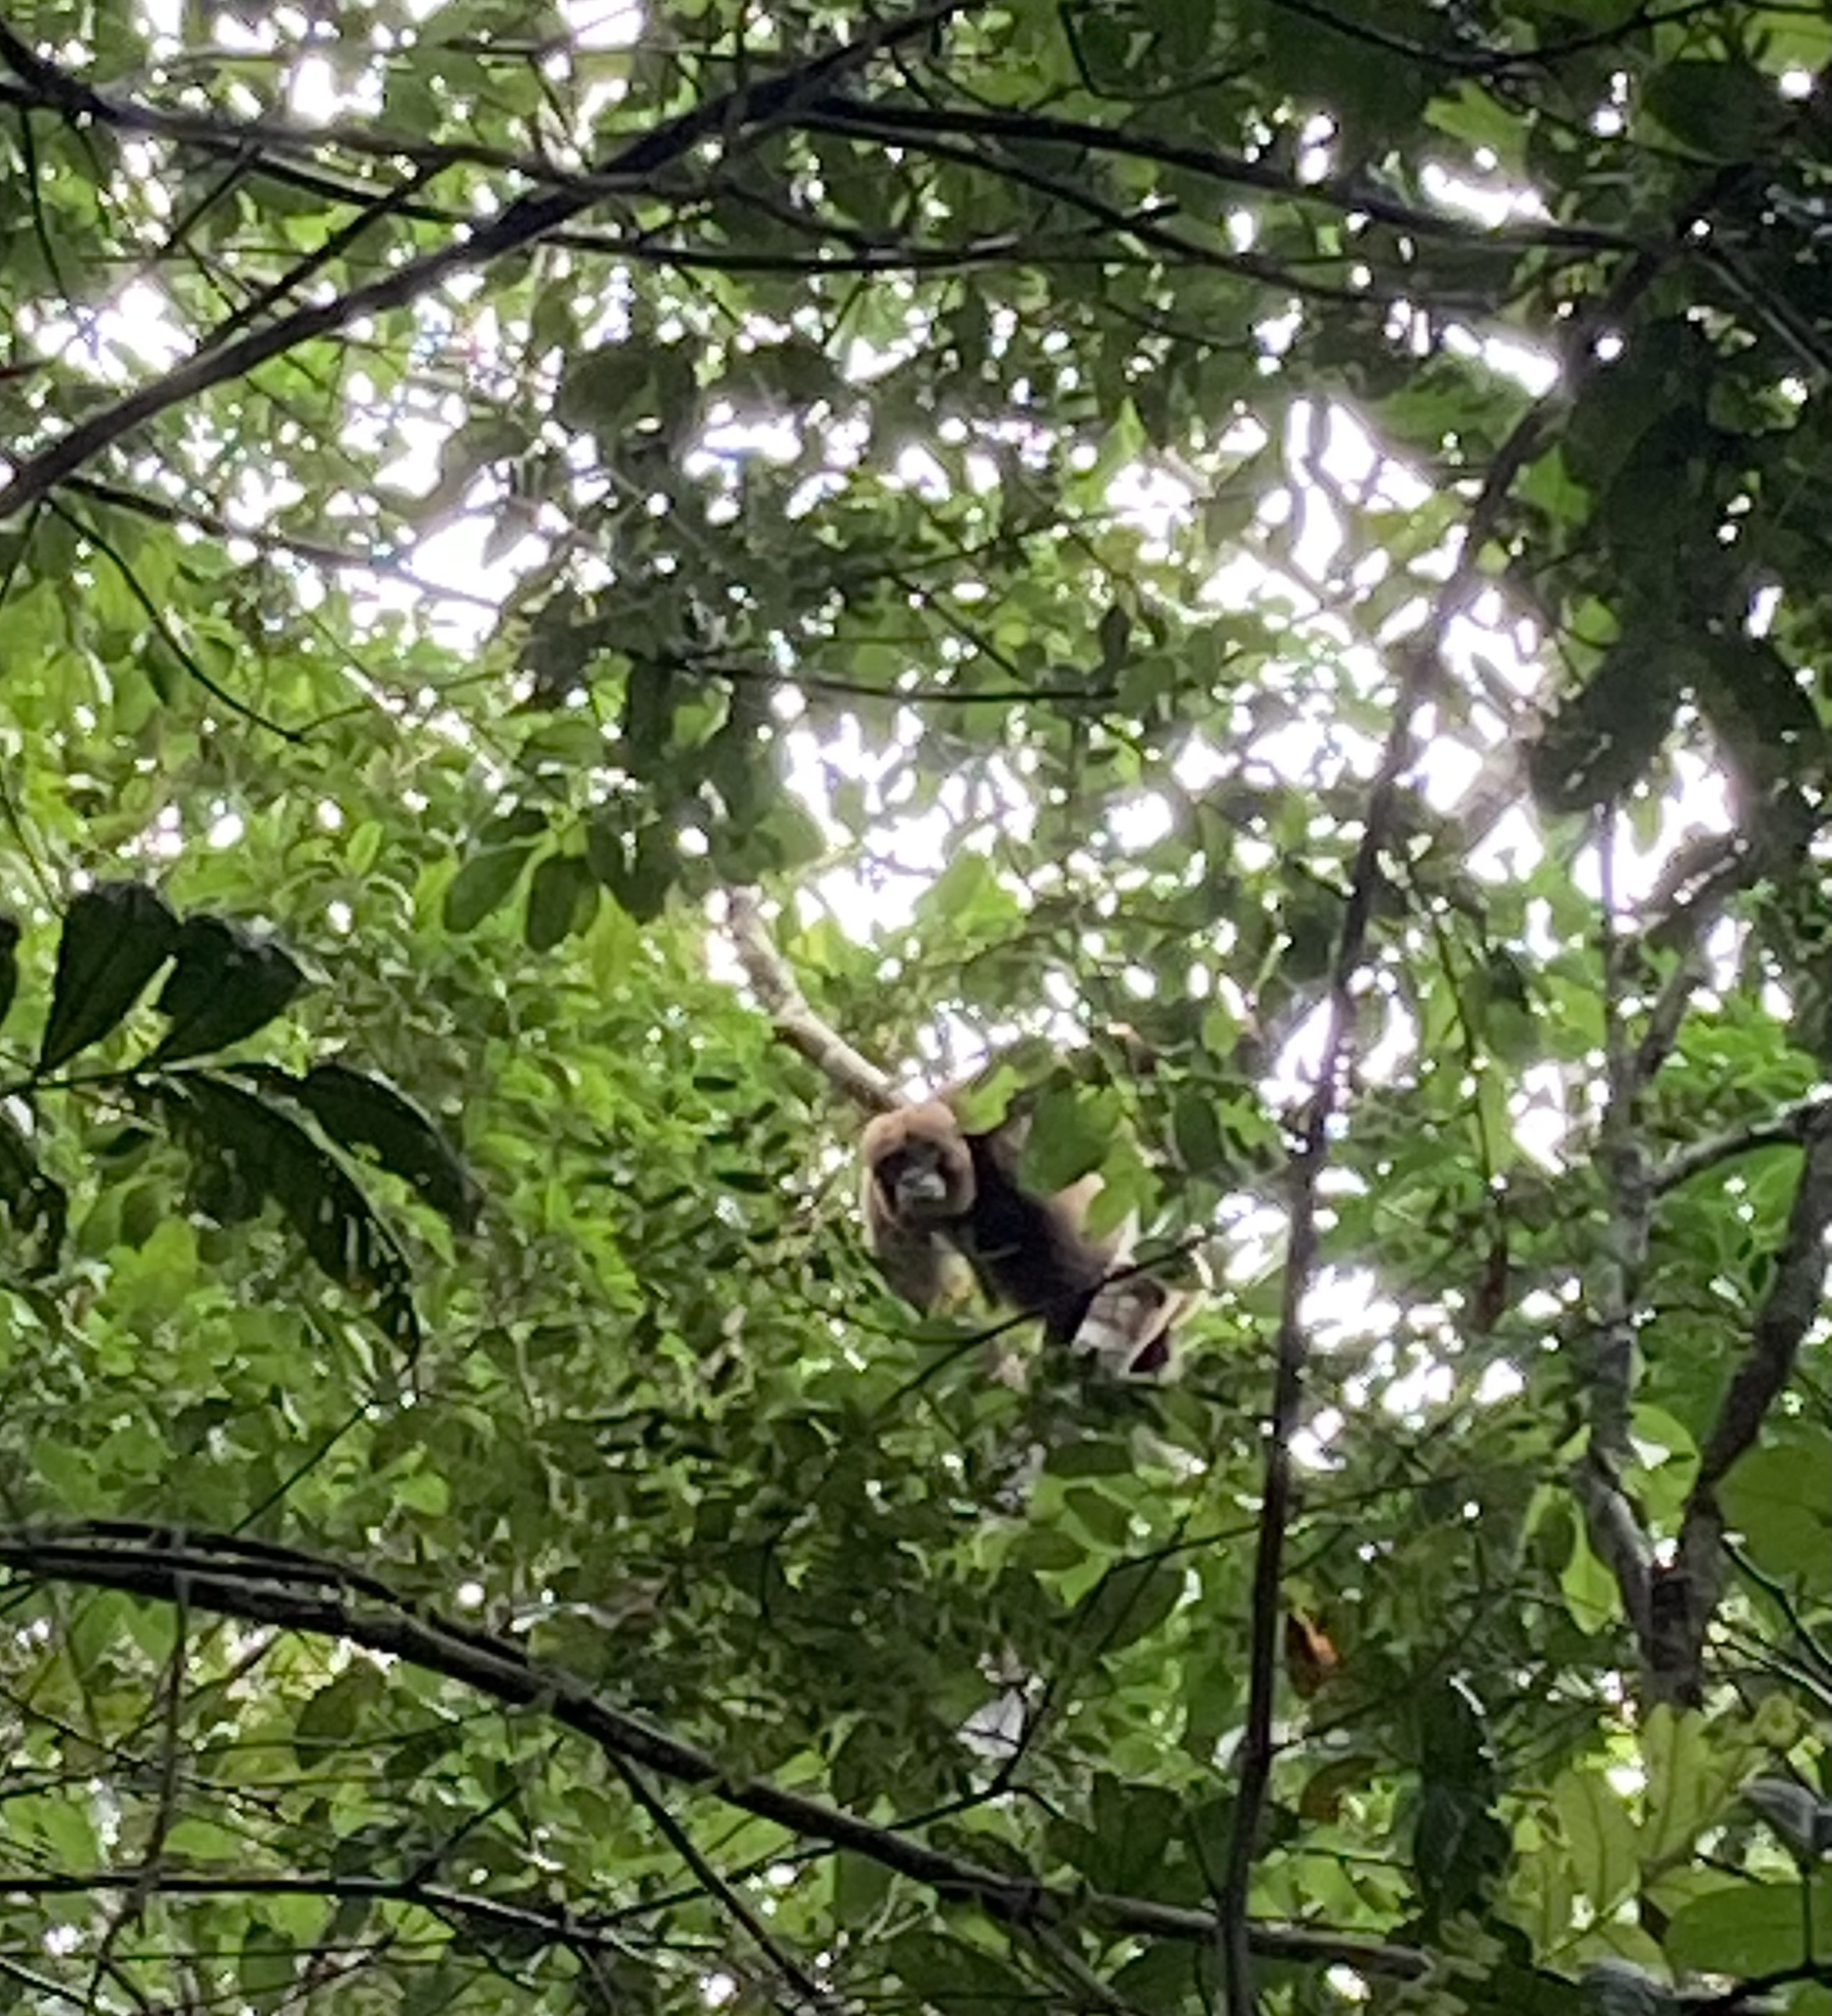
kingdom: Animalia
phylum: Chordata
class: Mammalia
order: Primates
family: Atelidae
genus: Lagothrix
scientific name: Lagothrix lagothricha
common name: Brown woolly monkey
